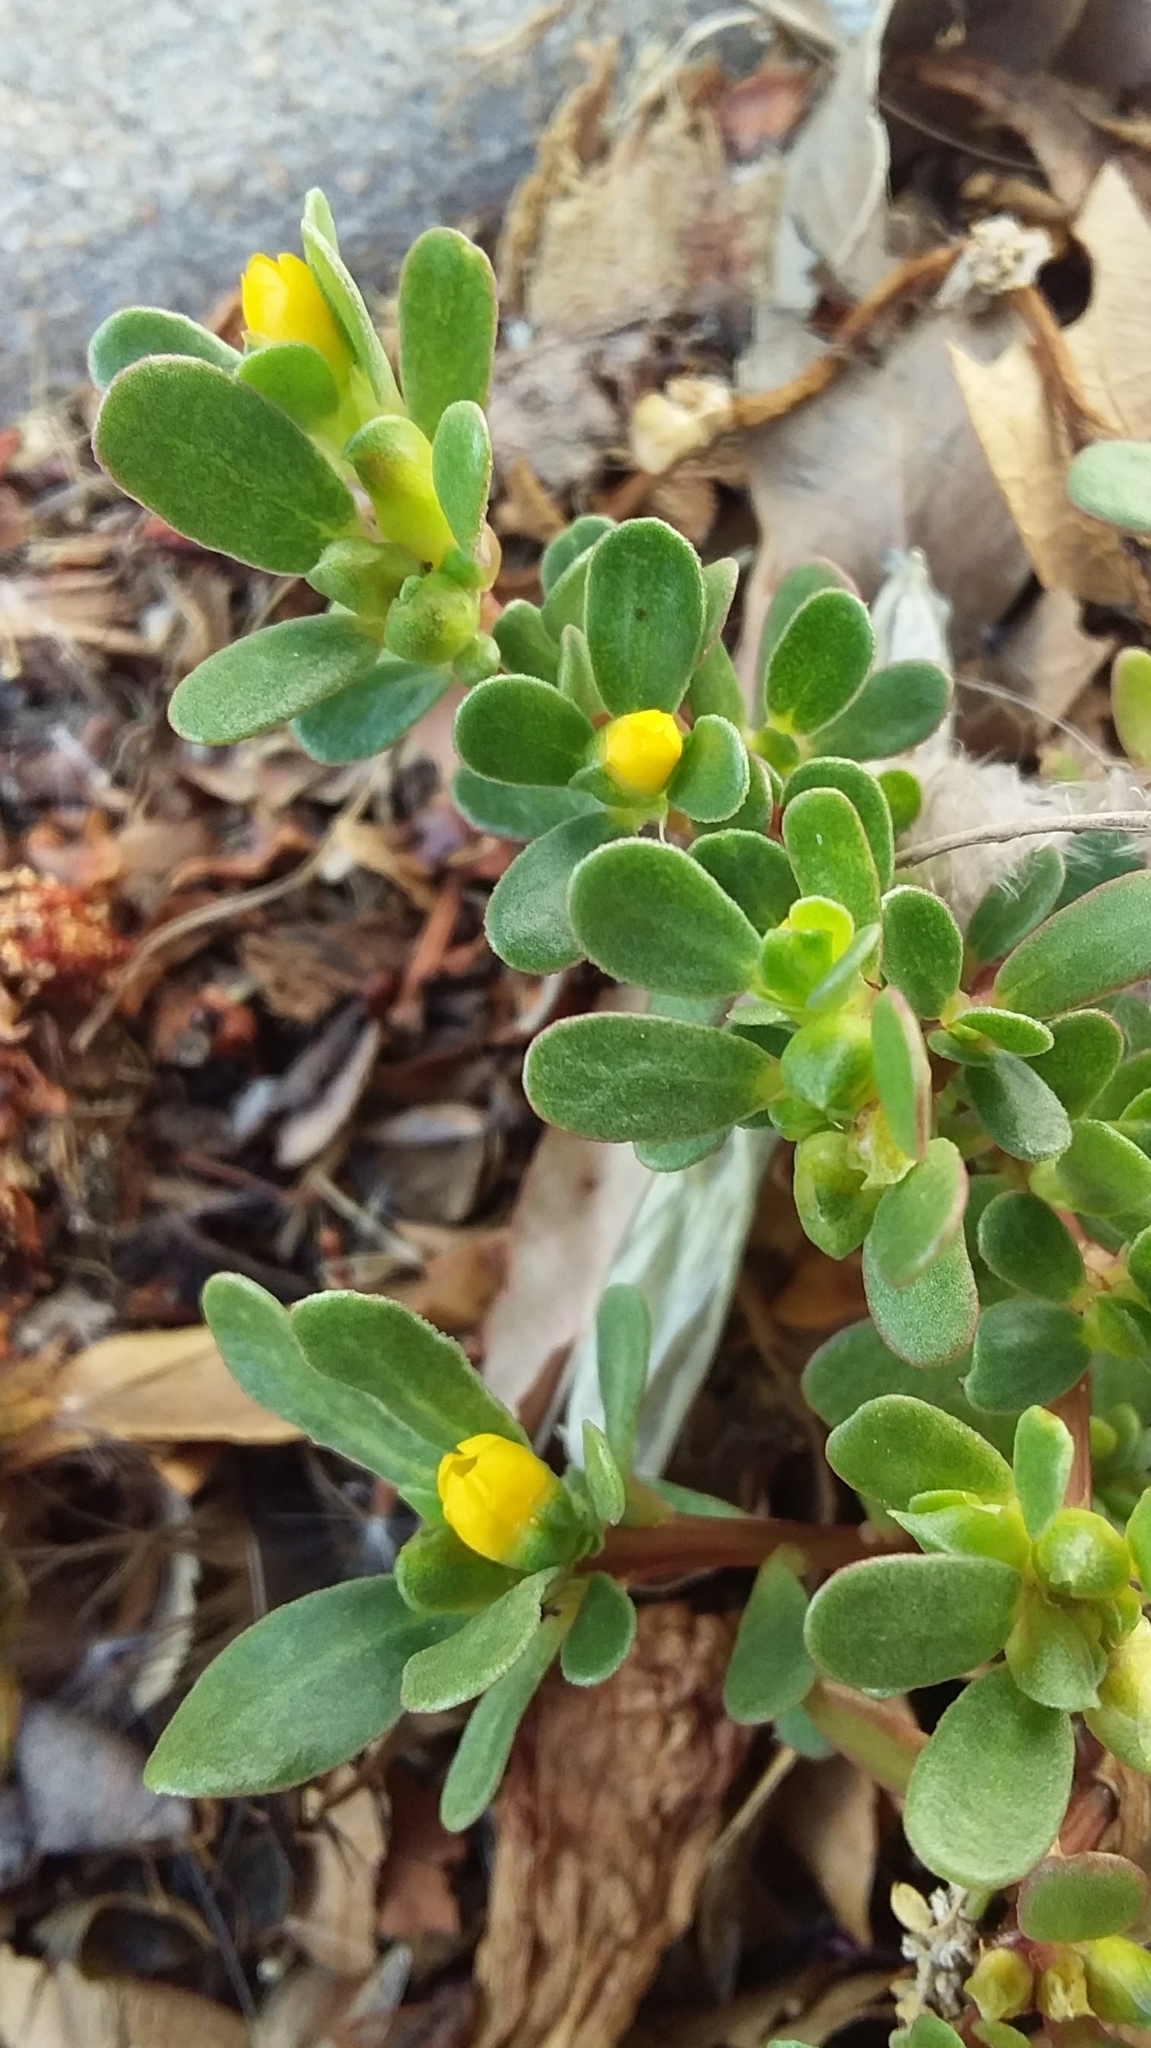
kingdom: Plantae
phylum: Tracheophyta
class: Magnoliopsida
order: Caryophyllales
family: Portulacaceae
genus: Portulaca
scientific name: Portulaca oleracea
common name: Common purslane
